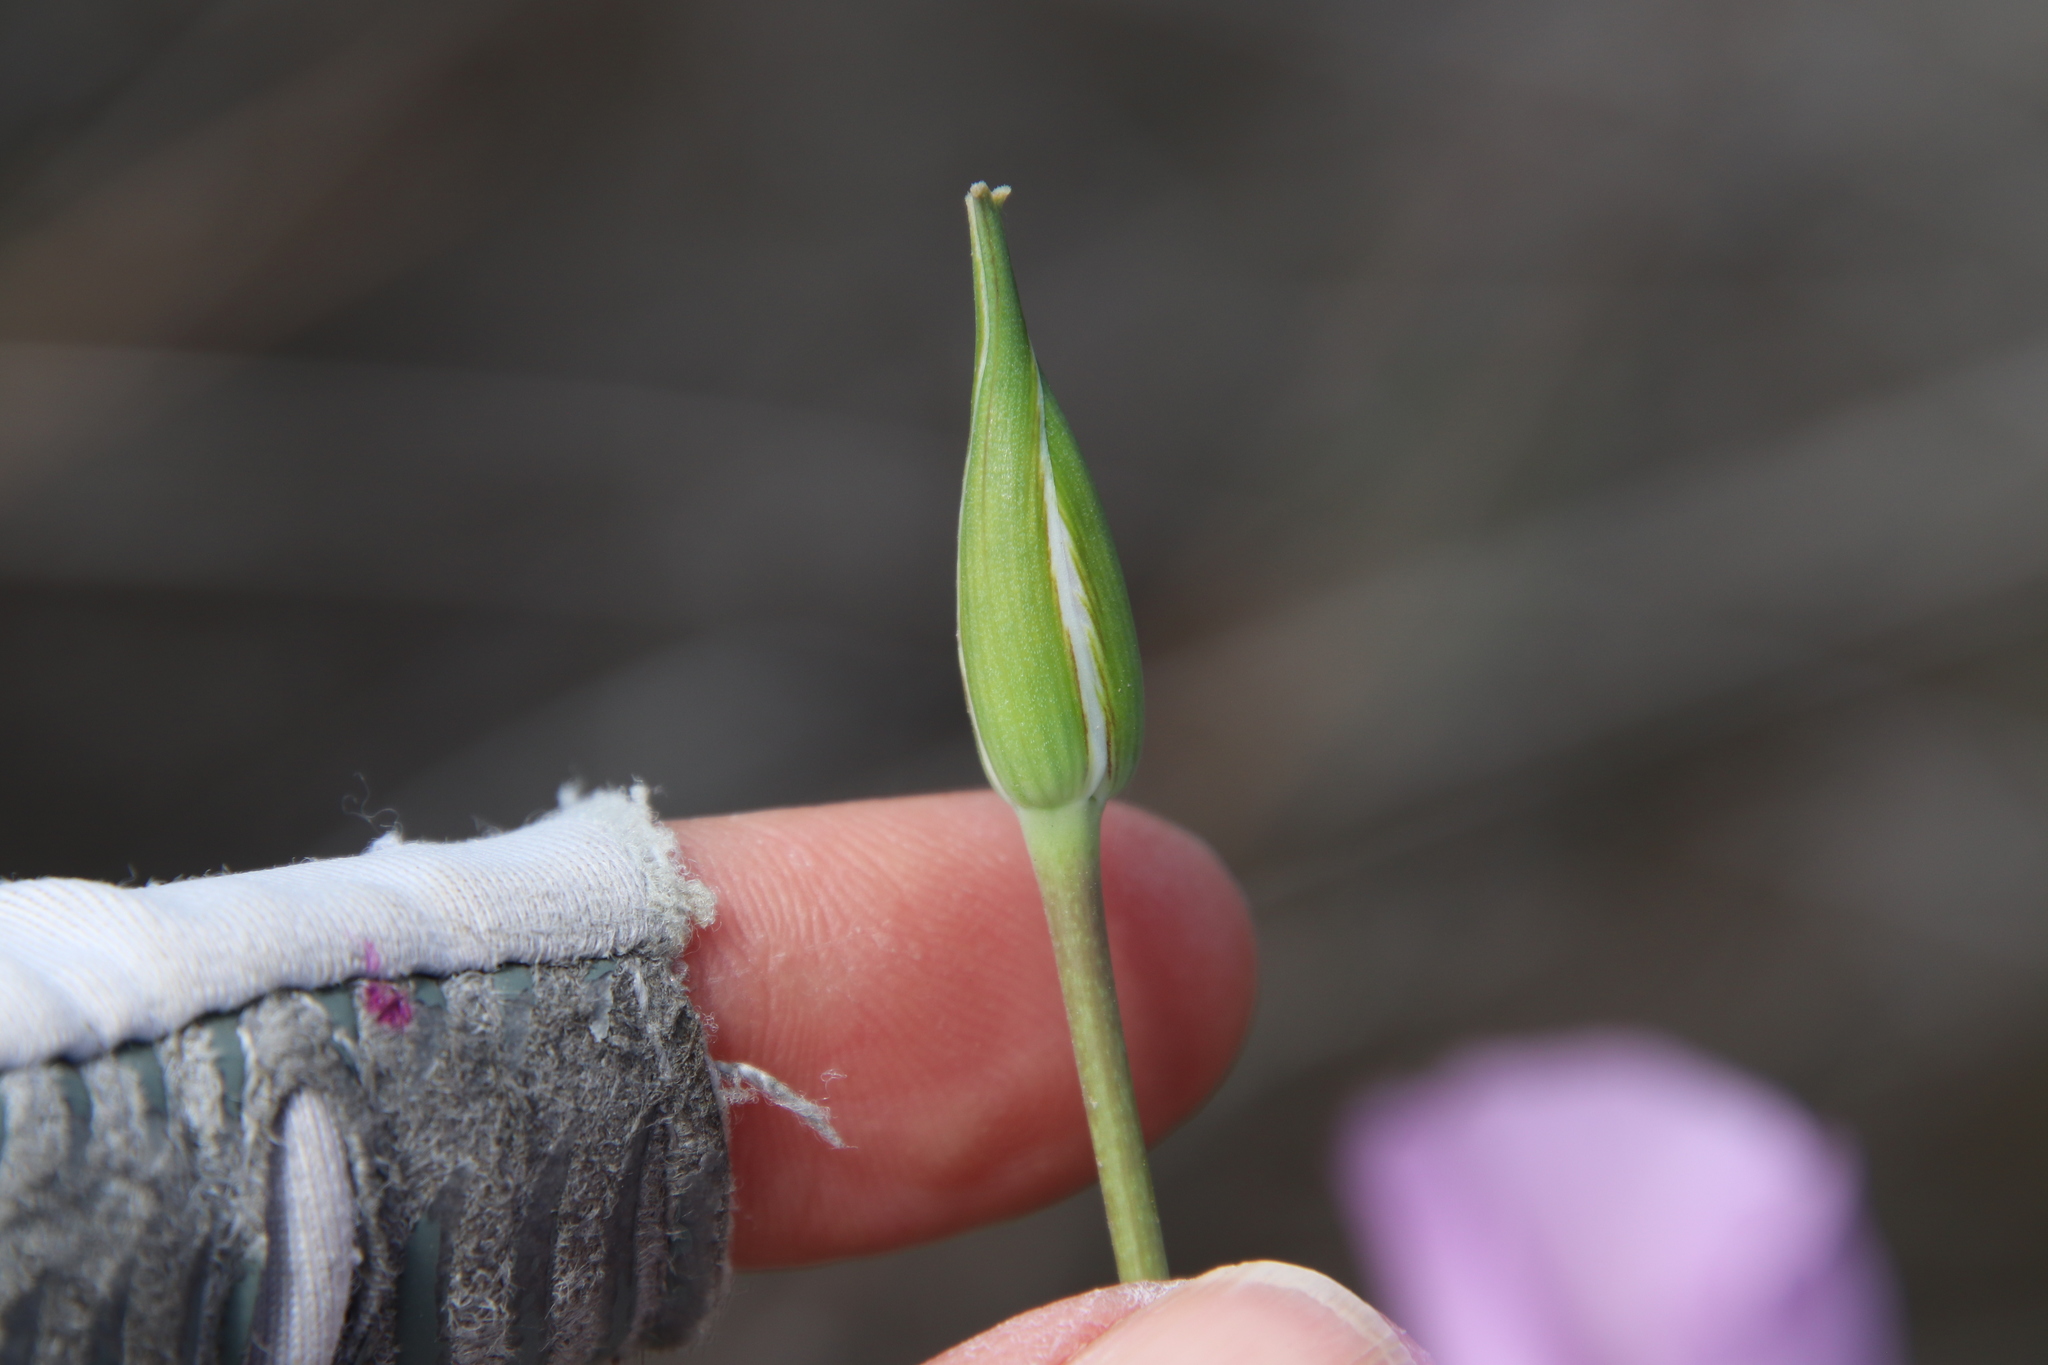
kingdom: Plantae
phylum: Tracheophyta
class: Liliopsida
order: Liliales
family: Liliaceae
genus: Calochortus
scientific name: Calochortus splendens
